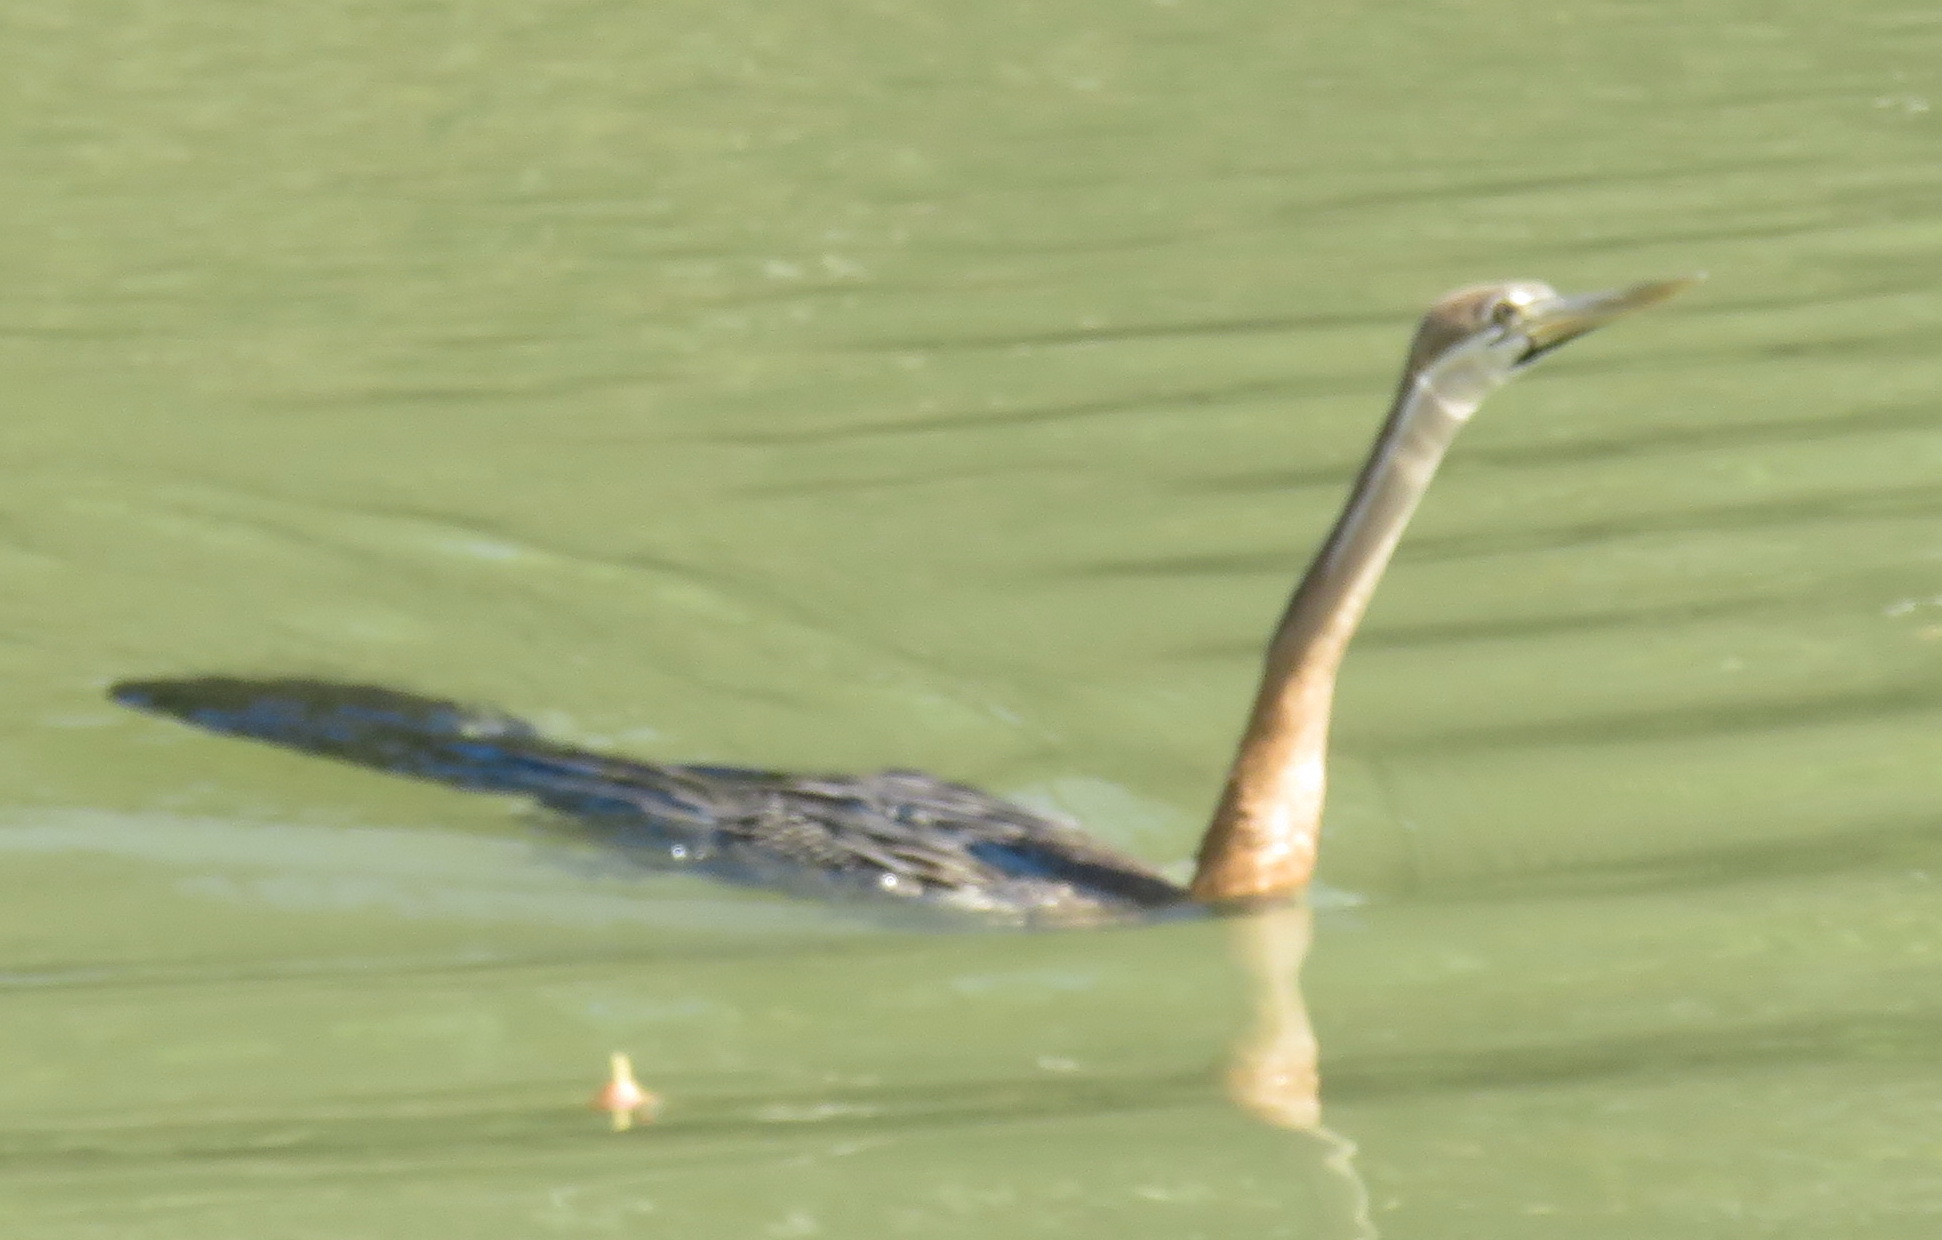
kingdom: Animalia
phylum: Chordata
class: Aves
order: Suliformes
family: Anhingidae
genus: Anhinga
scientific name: Anhinga rufa
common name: African darter
